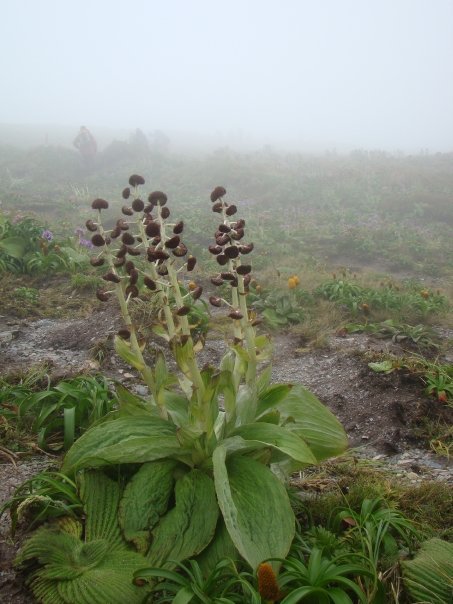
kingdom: Plantae
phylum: Tracheophyta
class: Magnoliopsida
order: Asterales
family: Asteraceae
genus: Pleurophyllum
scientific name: Pleurophyllum criniferum
